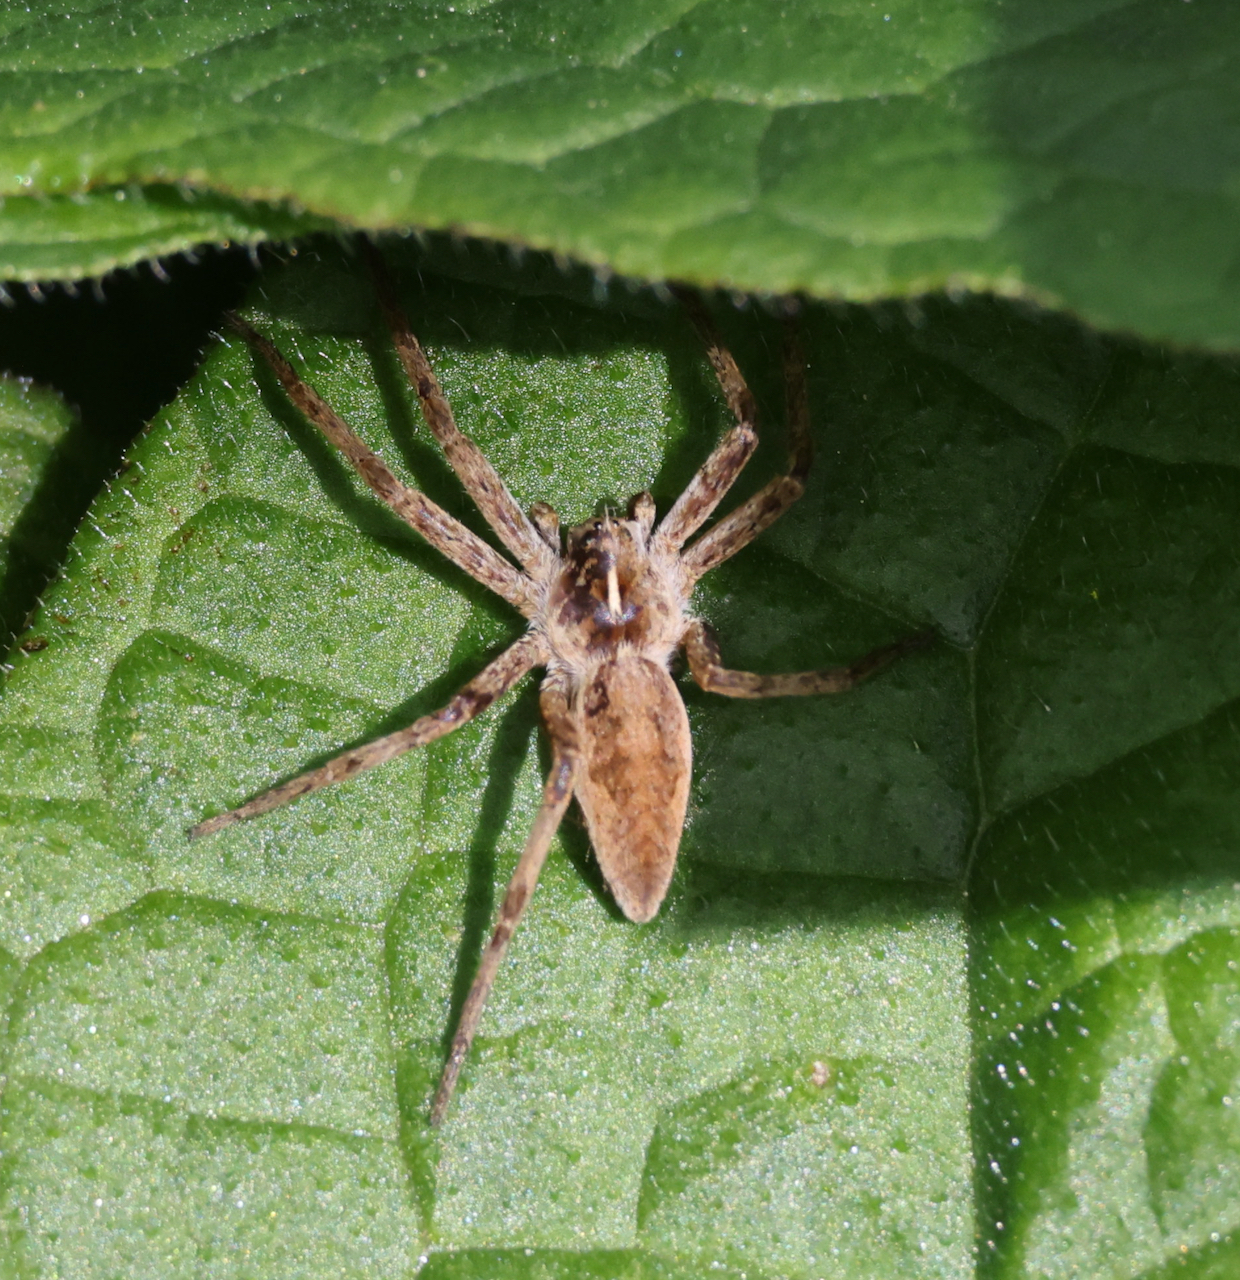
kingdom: Animalia
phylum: Arthropoda
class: Arachnida
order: Araneae
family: Pisauridae
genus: Pisaura
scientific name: Pisaura mirabilis
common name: Tent spider
